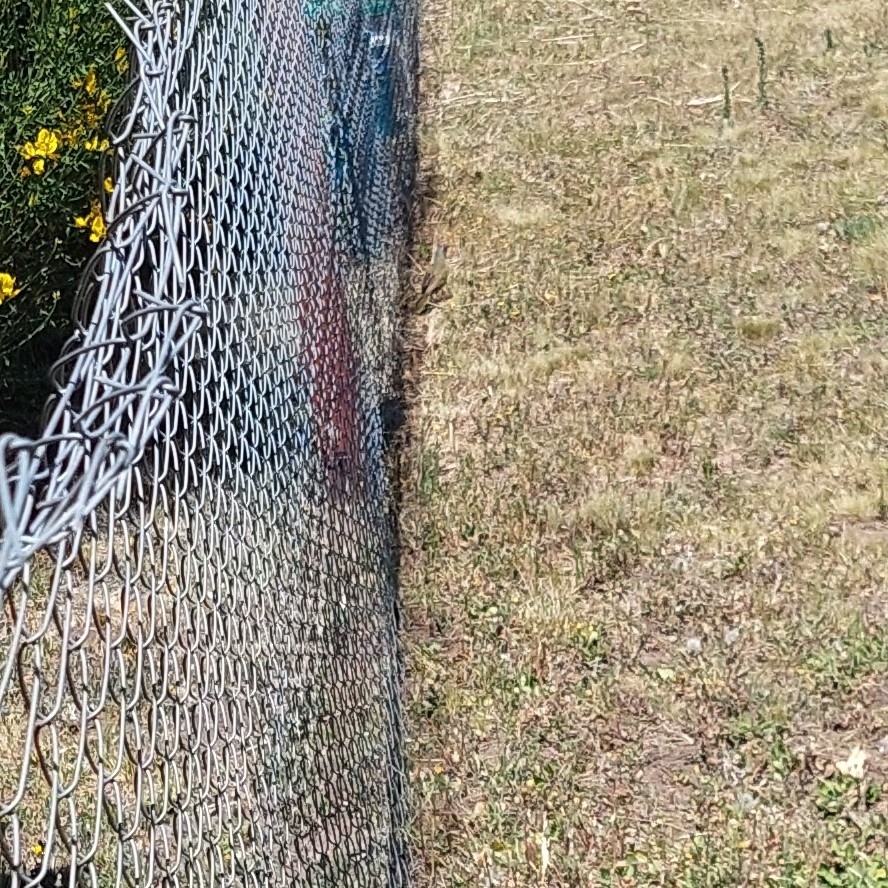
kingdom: Animalia
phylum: Chordata
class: Aves
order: Passeriformes
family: Thraupidae
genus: Embernagra
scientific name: Embernagra platensis
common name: Pampa finch
